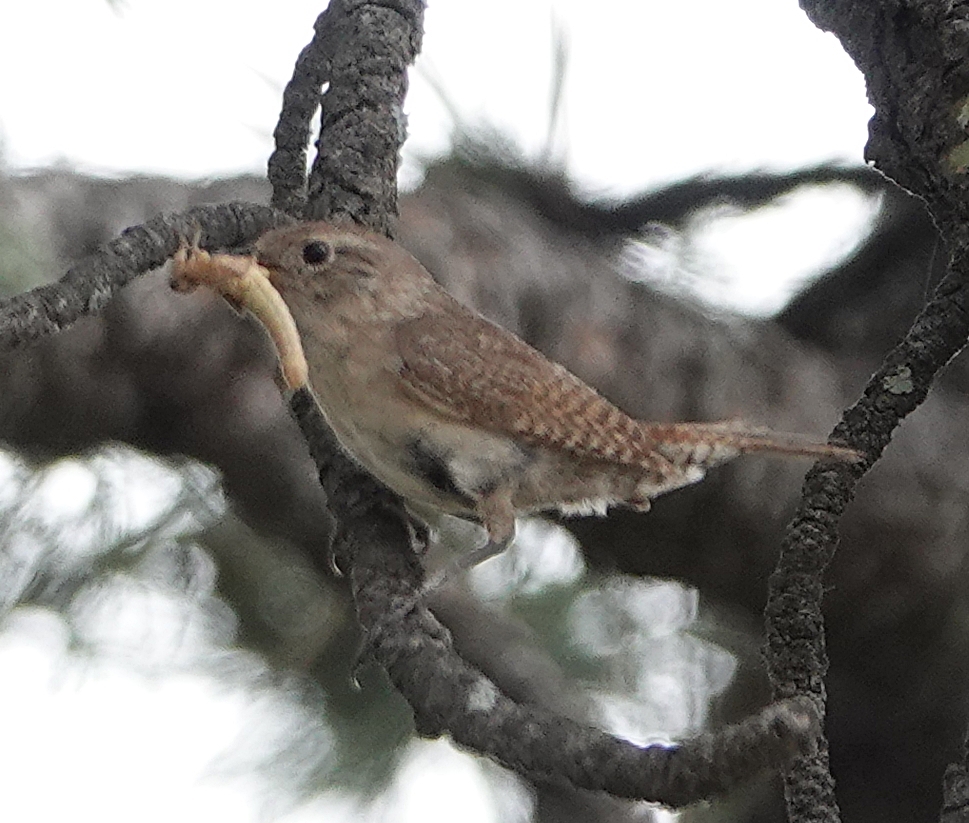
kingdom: Animalia
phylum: Chordata
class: Aves
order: Passeriformes
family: Troglodytidae
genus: Troglodytes
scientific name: Troglodytes aedon
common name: House wren
